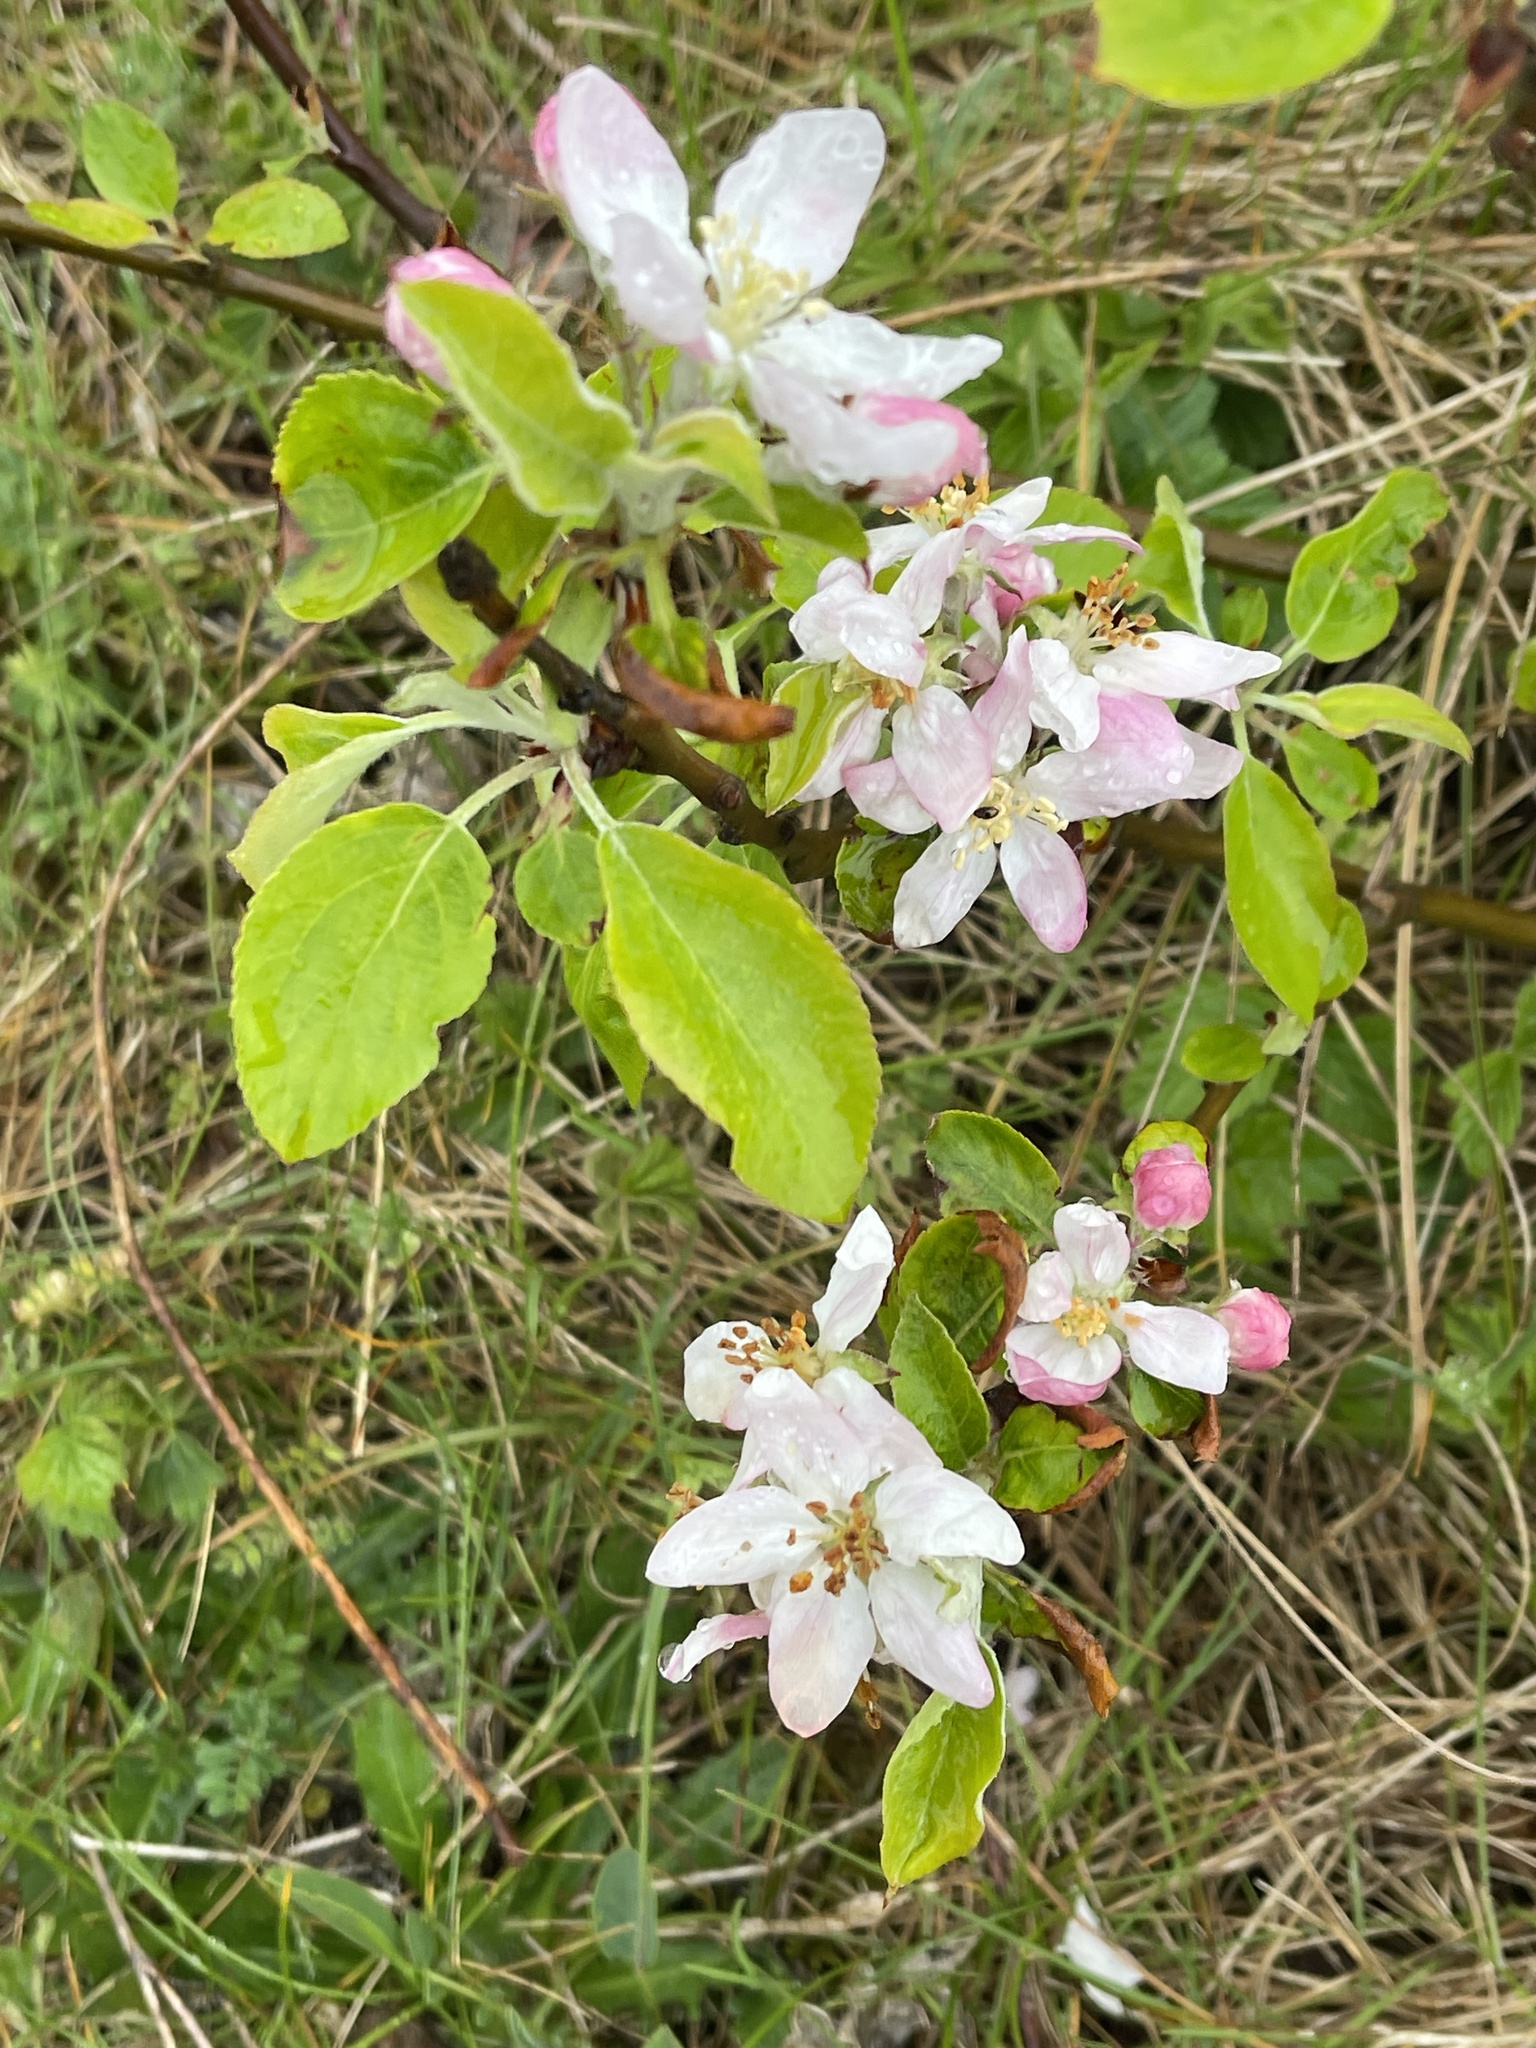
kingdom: Plantae
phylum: Tracheophyta
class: Magnoliopsida
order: Rosales
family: Rosaceae
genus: Malus
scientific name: Malus domestica
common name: Apple
